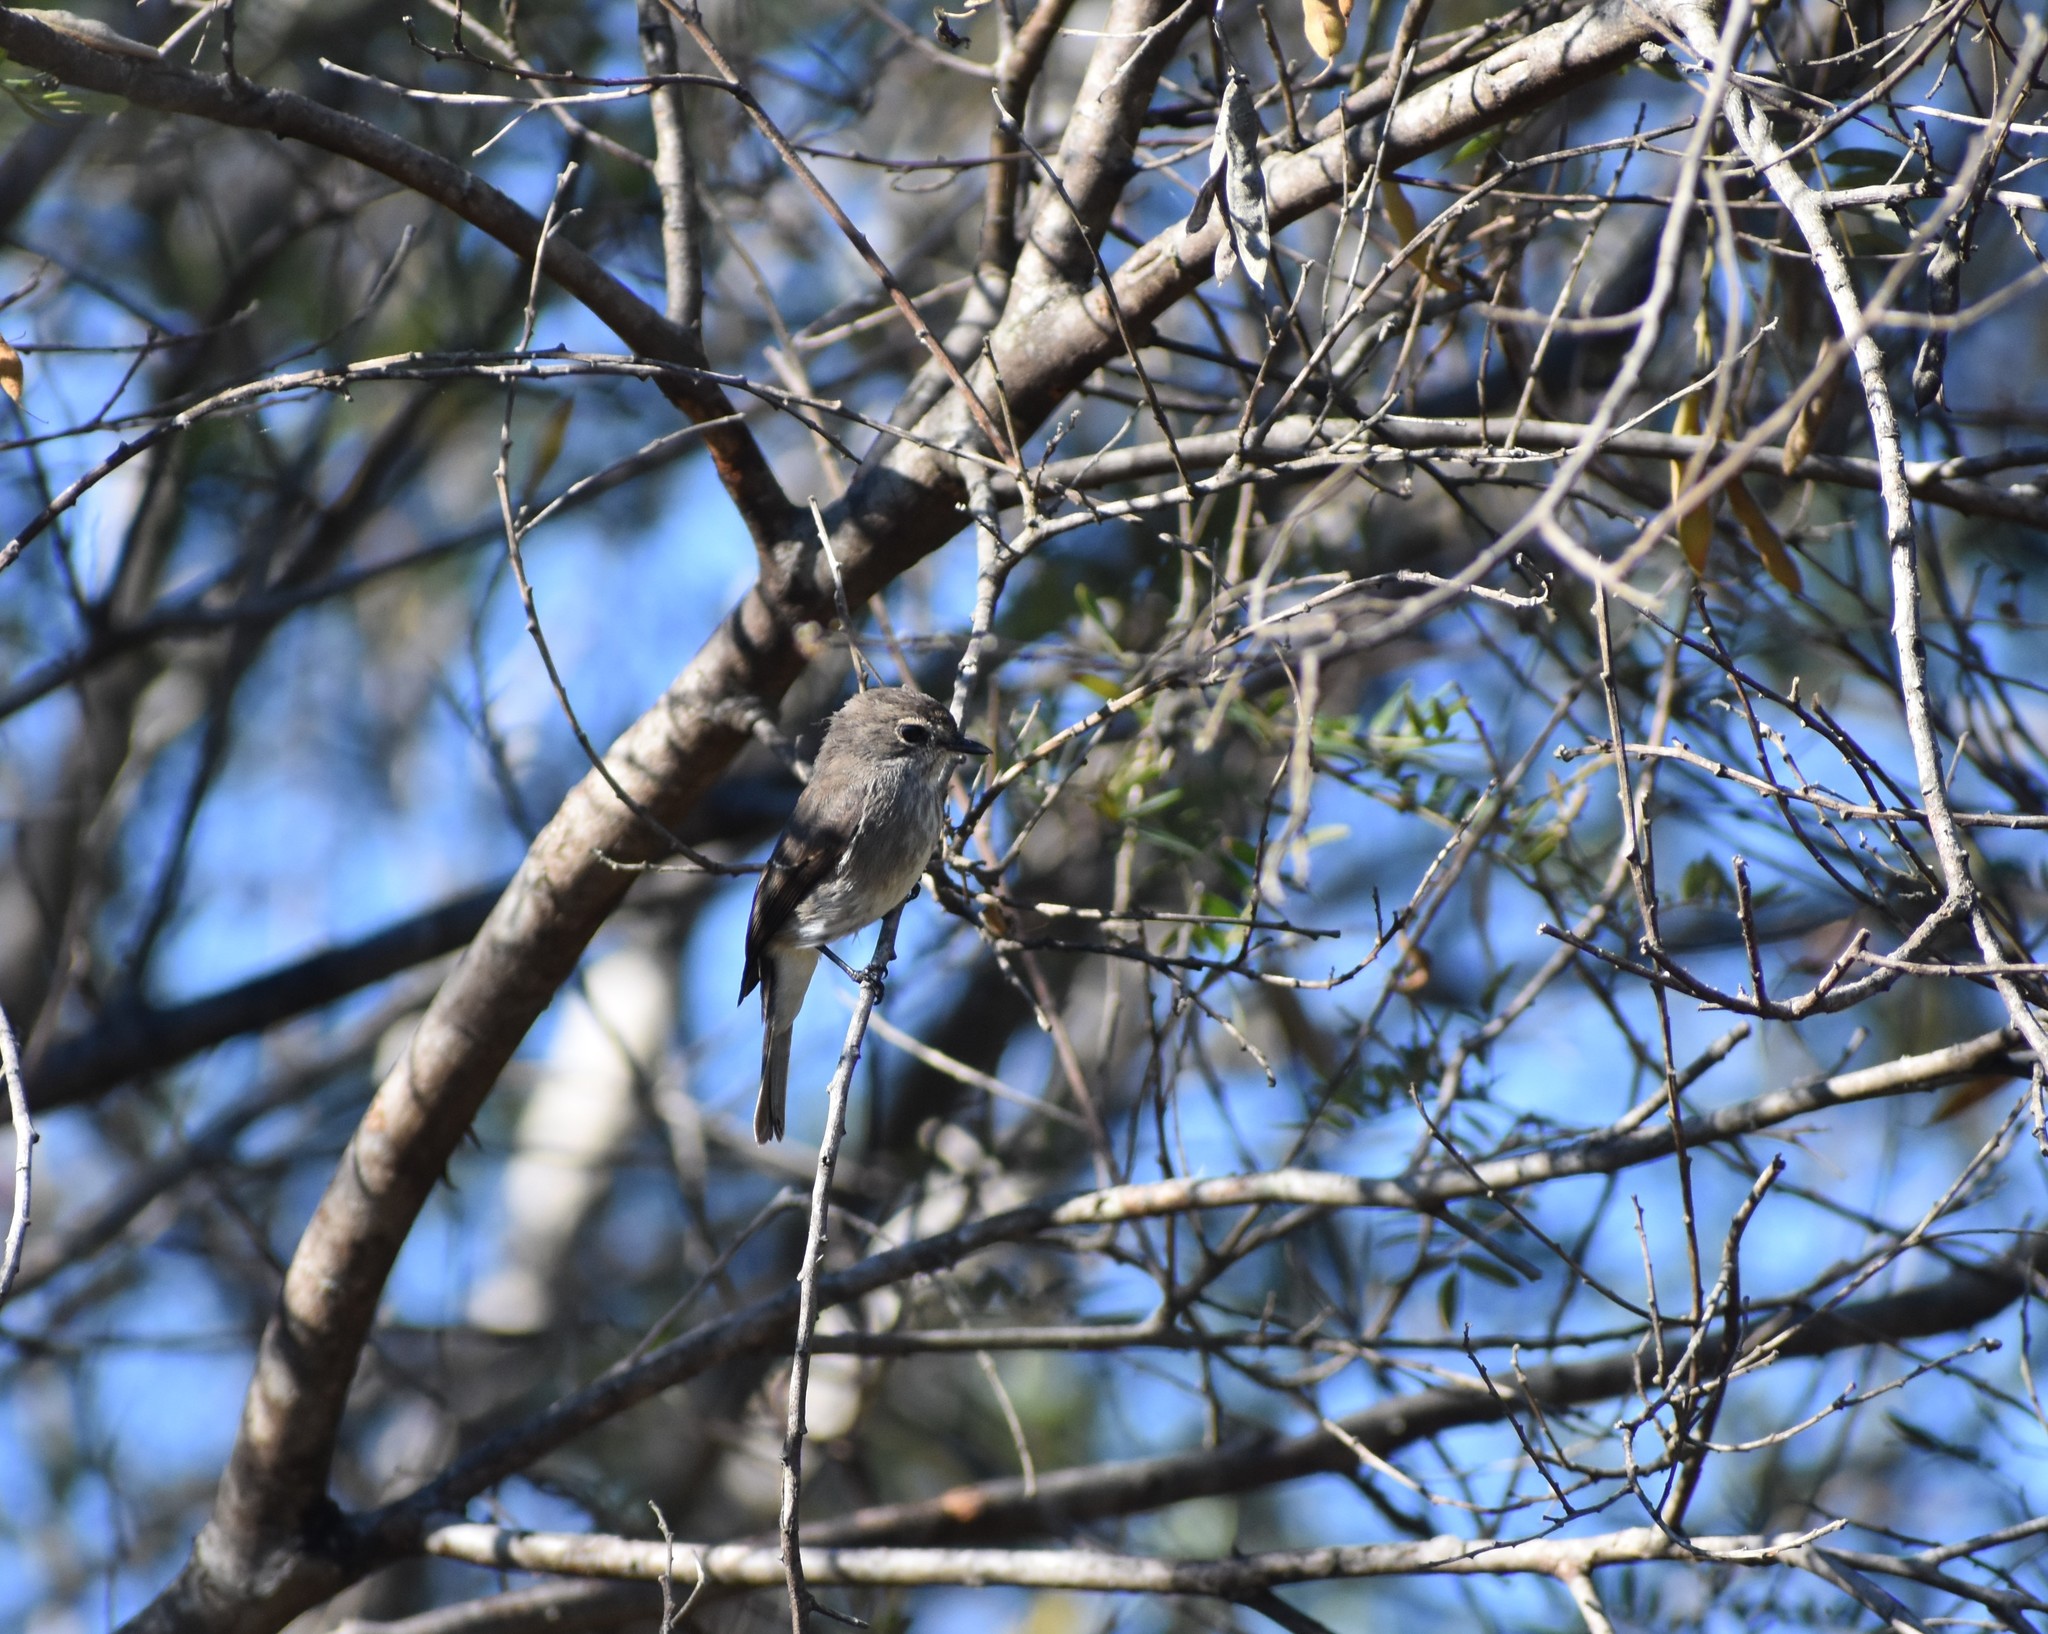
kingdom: Animalia
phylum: Chordata
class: Aves
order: Passeriformes
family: Muscicapidae
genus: Muscicapa
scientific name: Muscicapa adusta
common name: African dusky flycatcher
